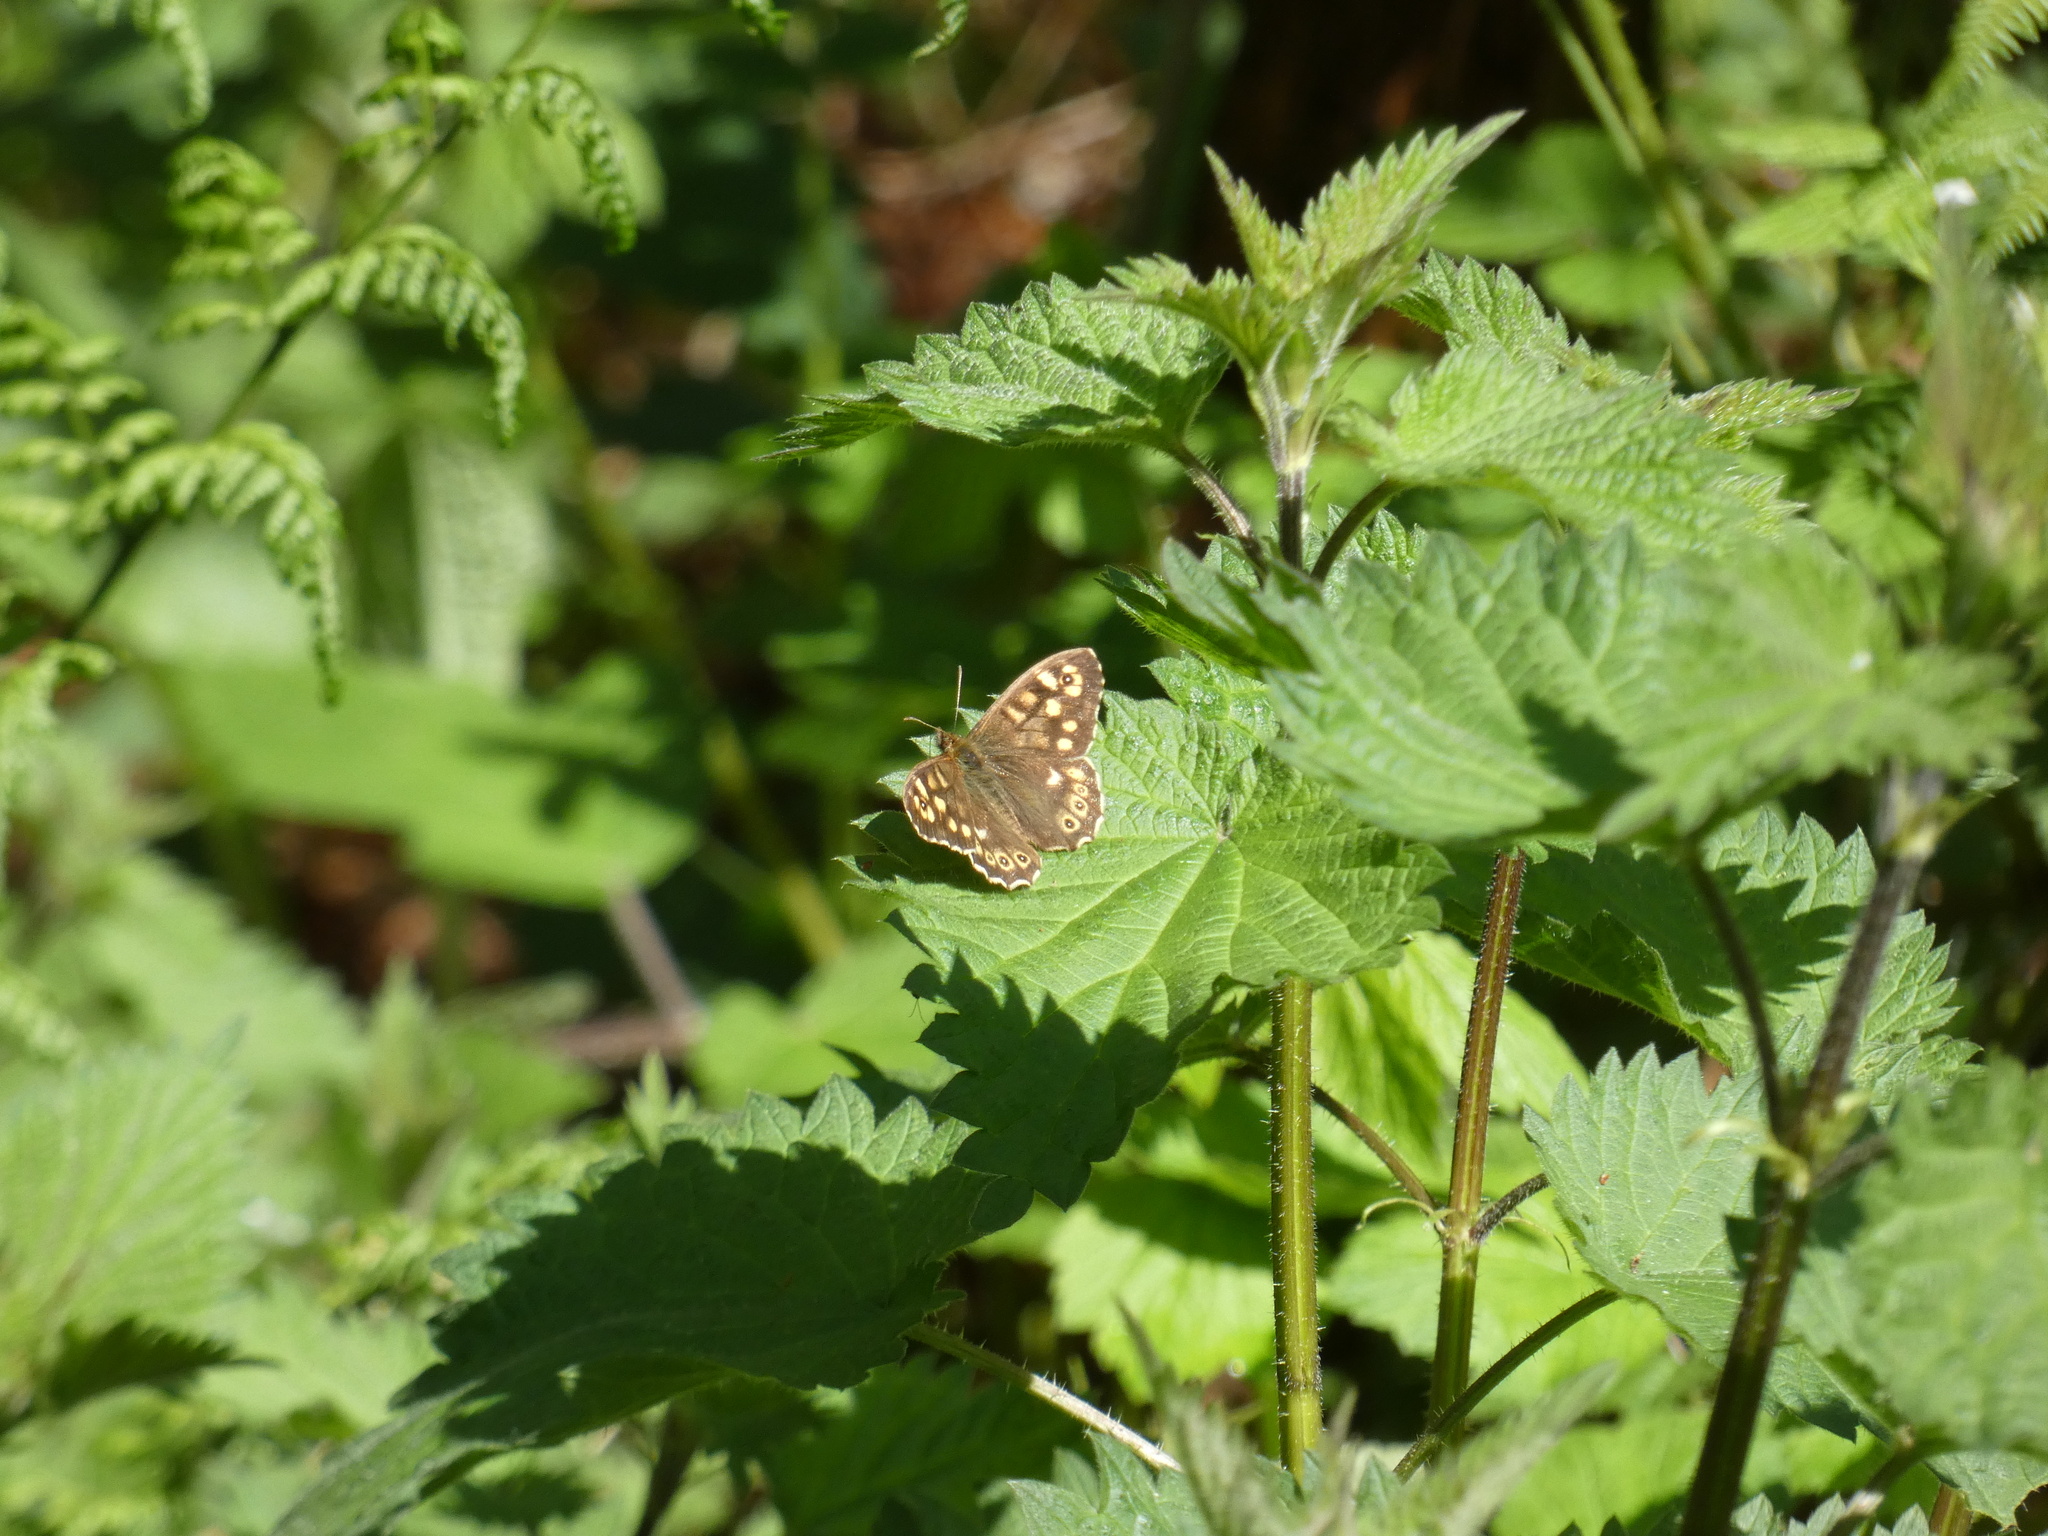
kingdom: Animalia
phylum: Arthropoda
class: Insecta
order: Lepidoptera
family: Nymphalidae
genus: Pararge
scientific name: Pararge aegeria
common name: Speckled wood
